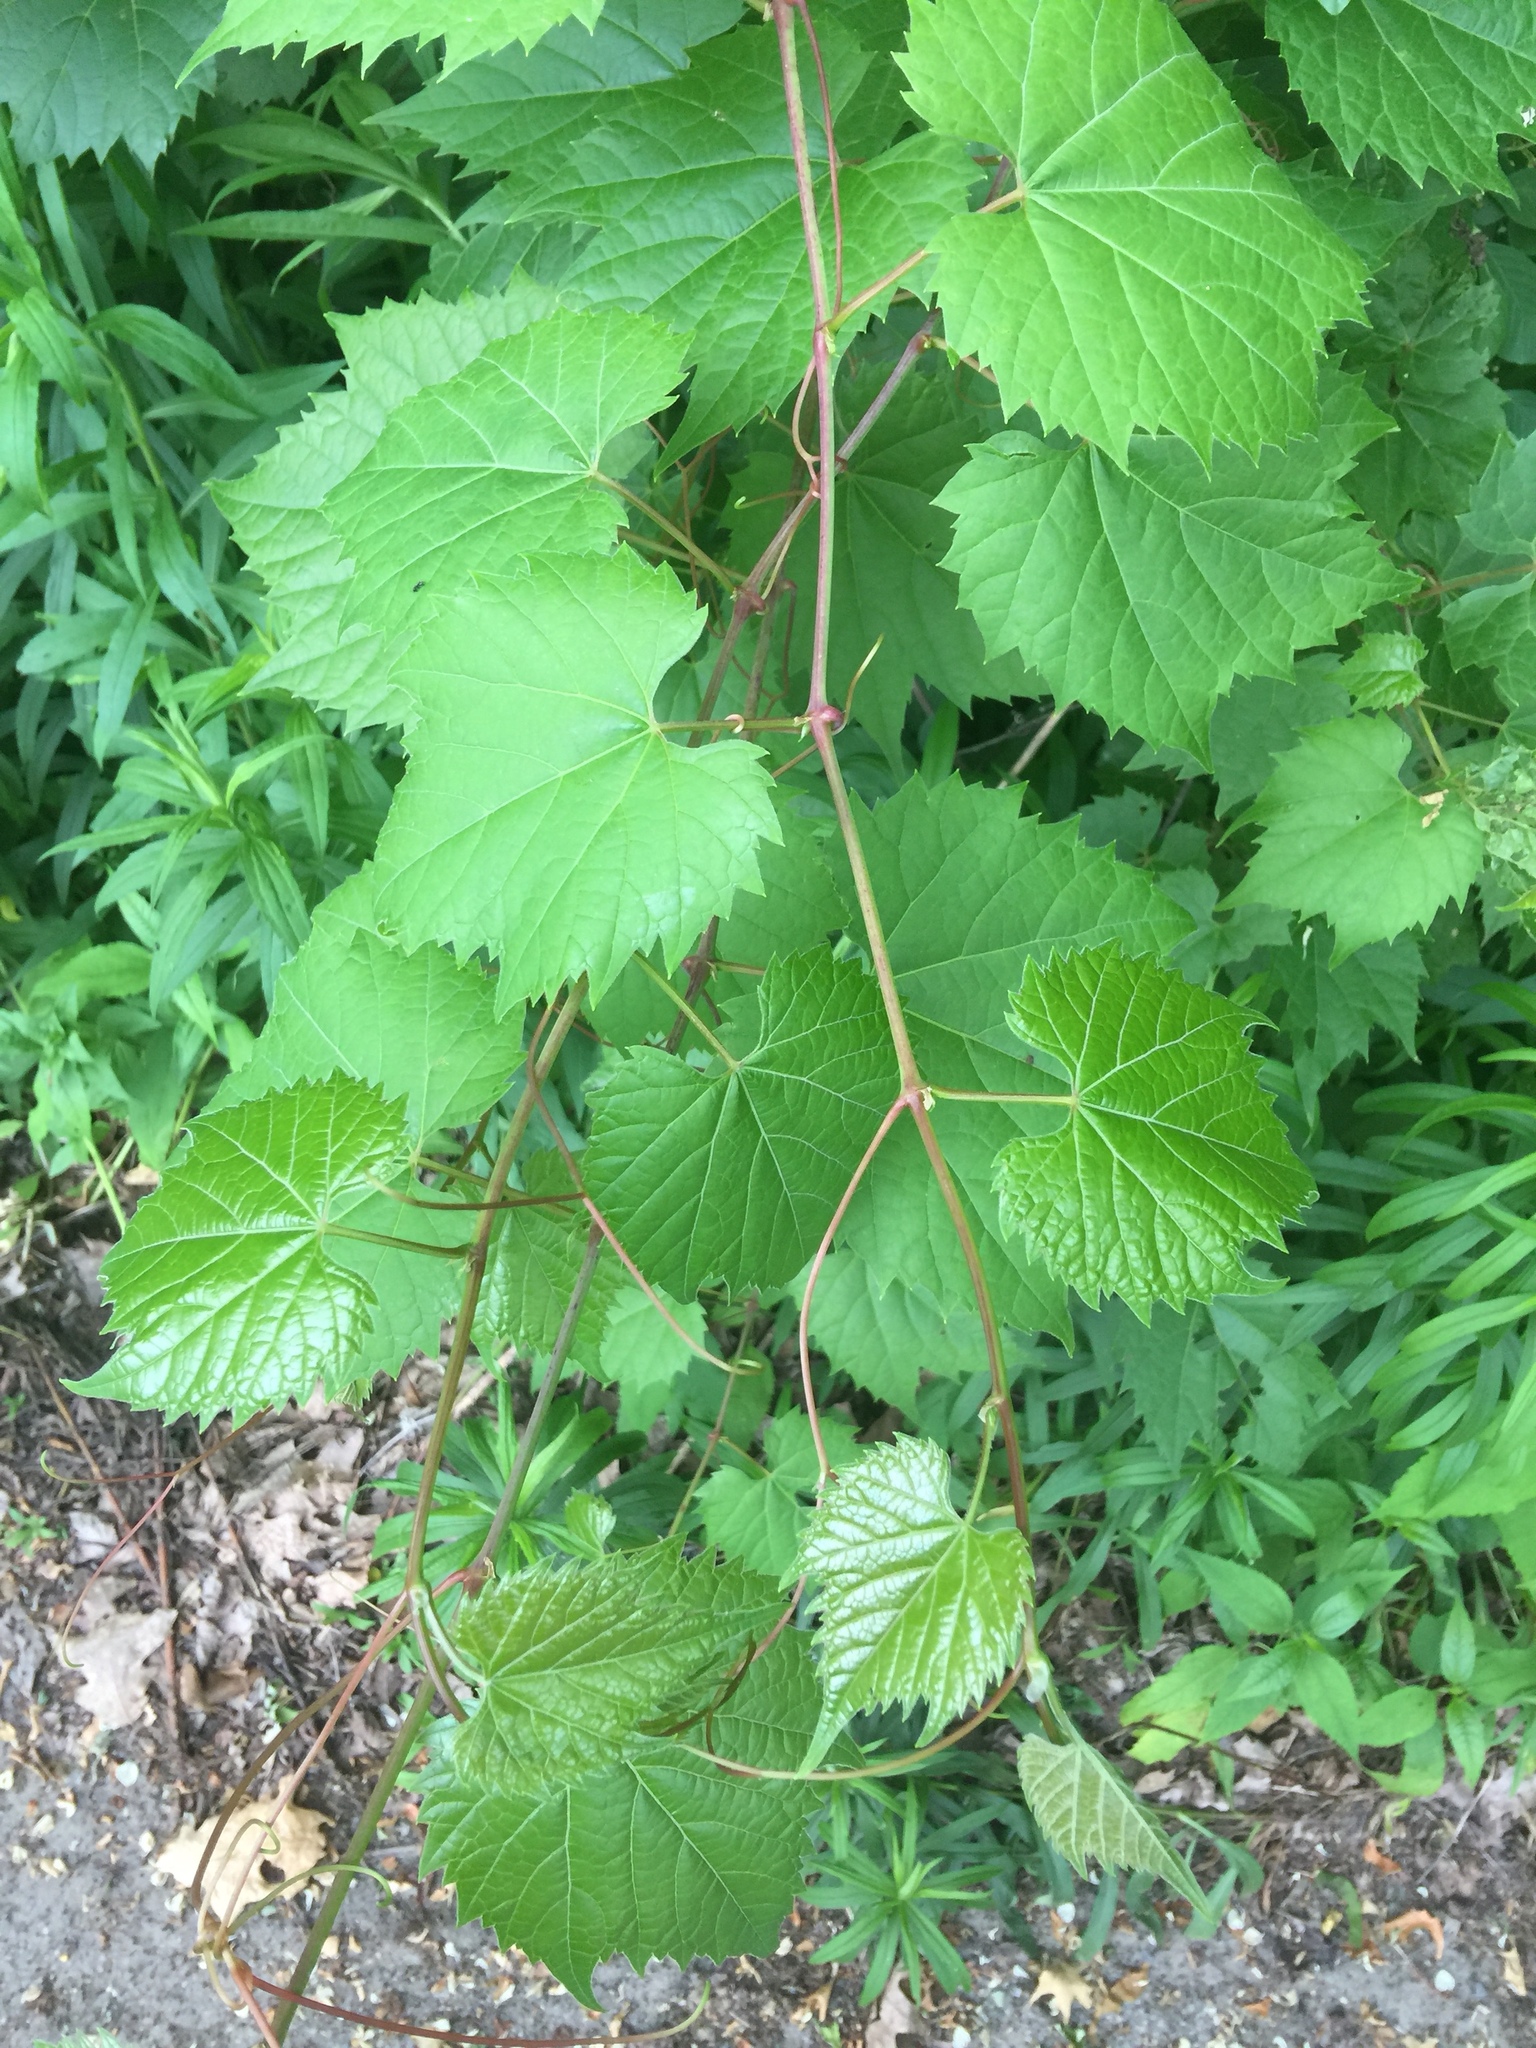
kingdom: Plantae
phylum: Tracheophyta
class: Magnoliopsida
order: Vitales
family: Vitaceae
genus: Vitis
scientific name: Vitis riparia
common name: Frost grape
